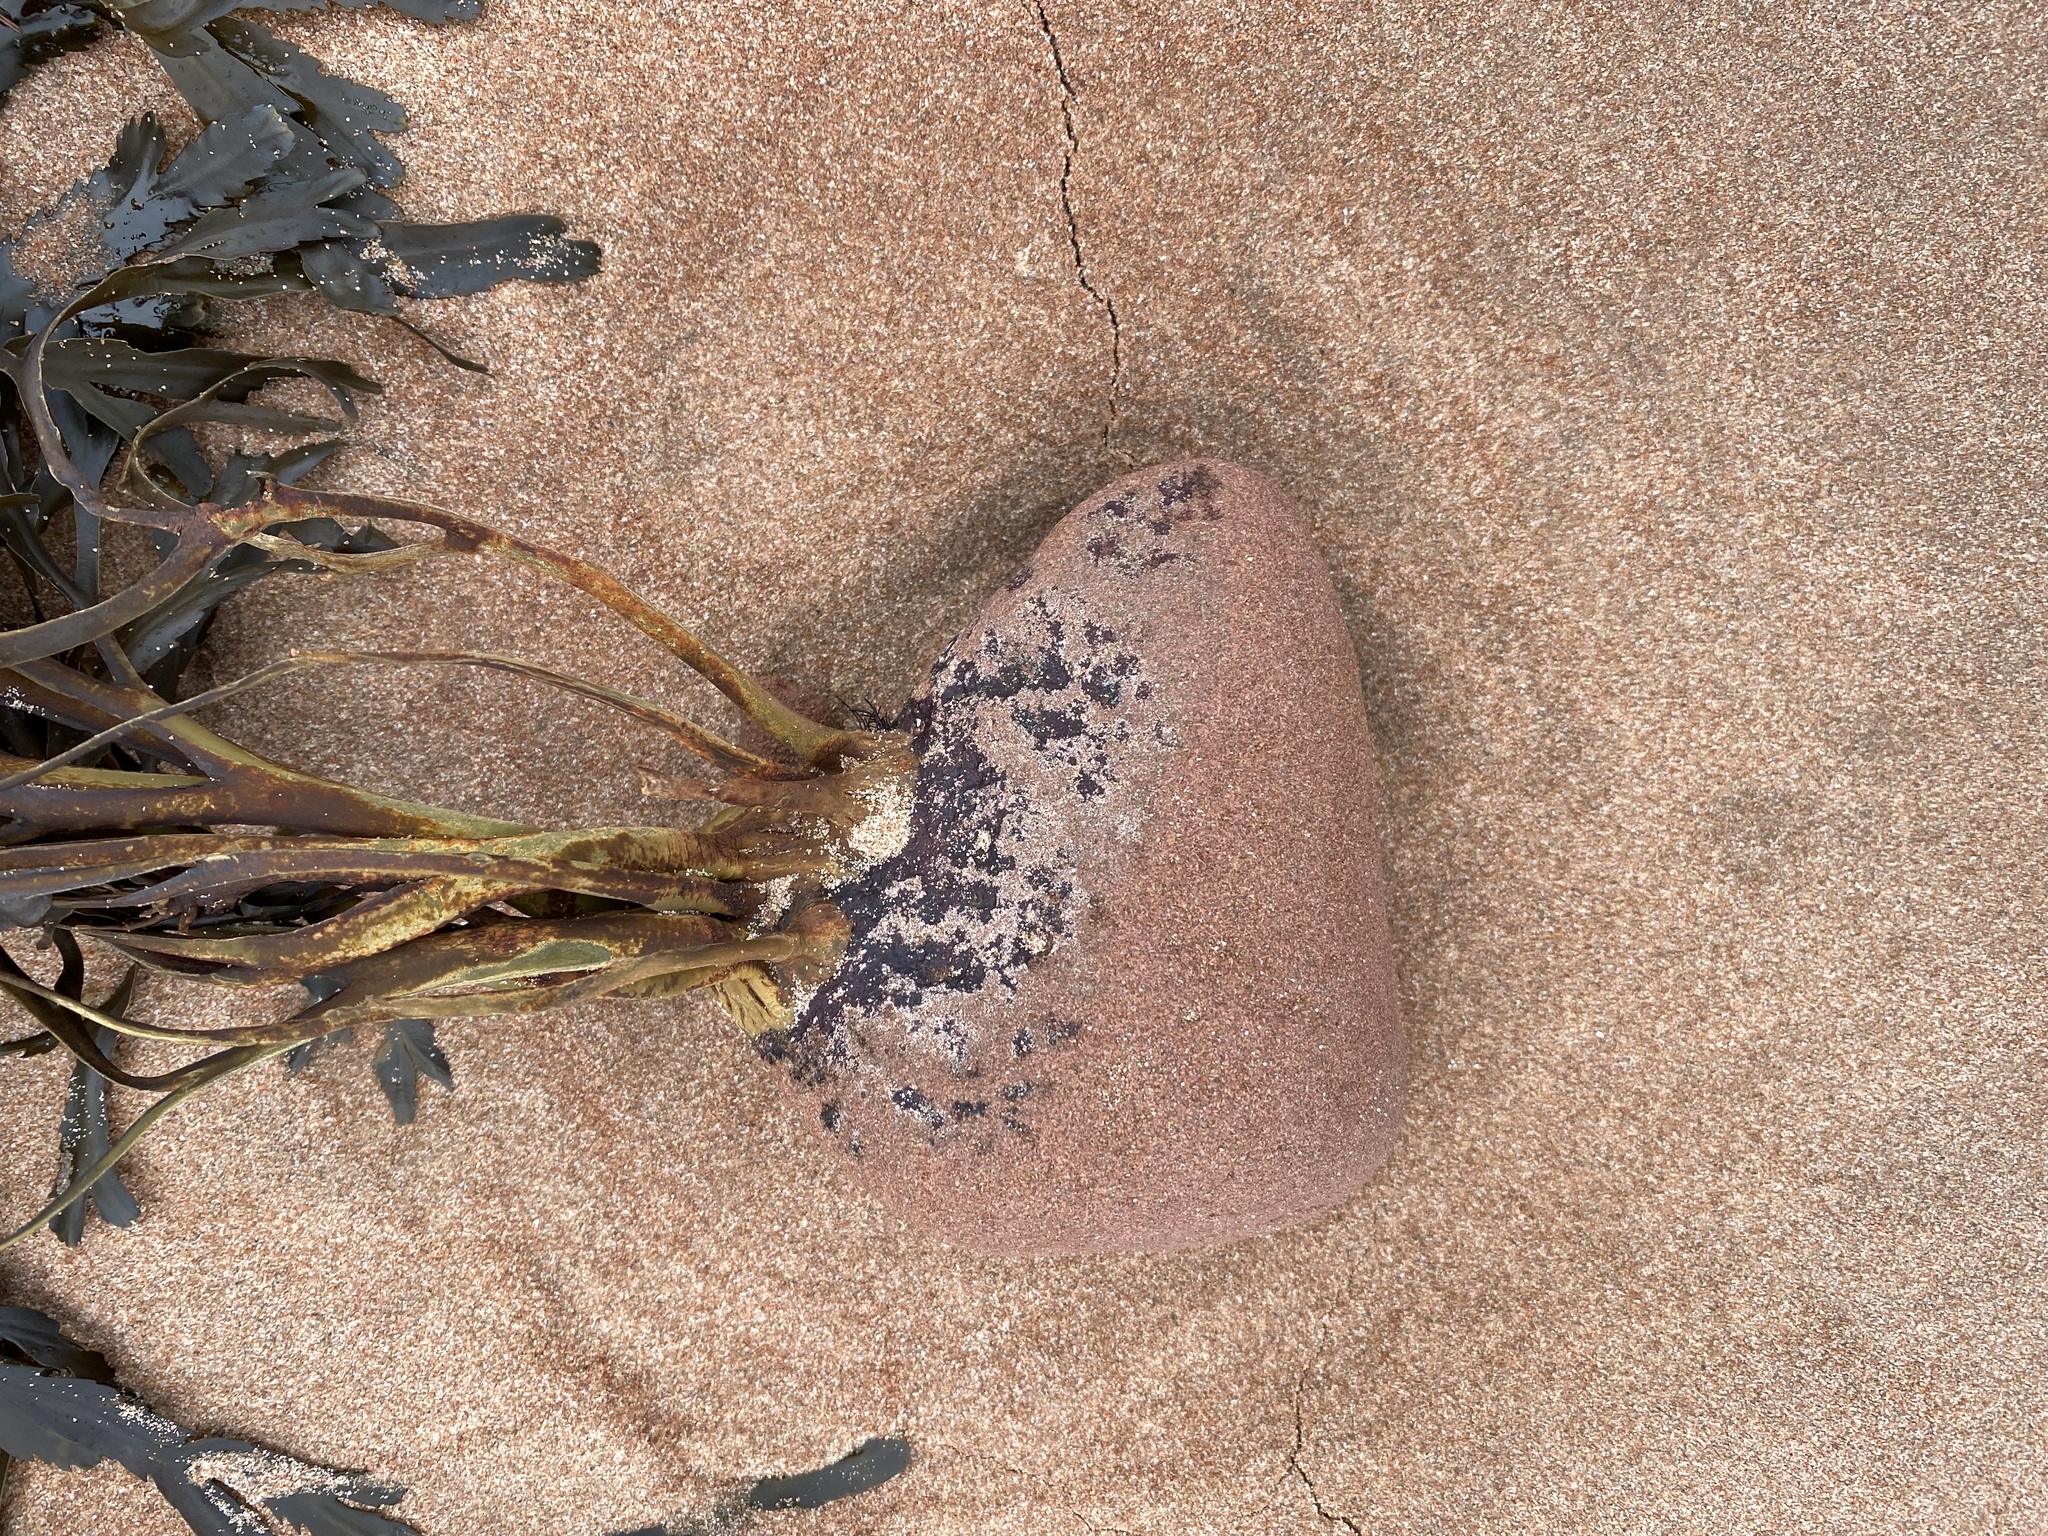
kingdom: Chromista
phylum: Ochrophyta
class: Phaeophyceae
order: Fucales
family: Fucaceae
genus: Fucus
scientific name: Fucus serratus
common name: Toothed wrack
